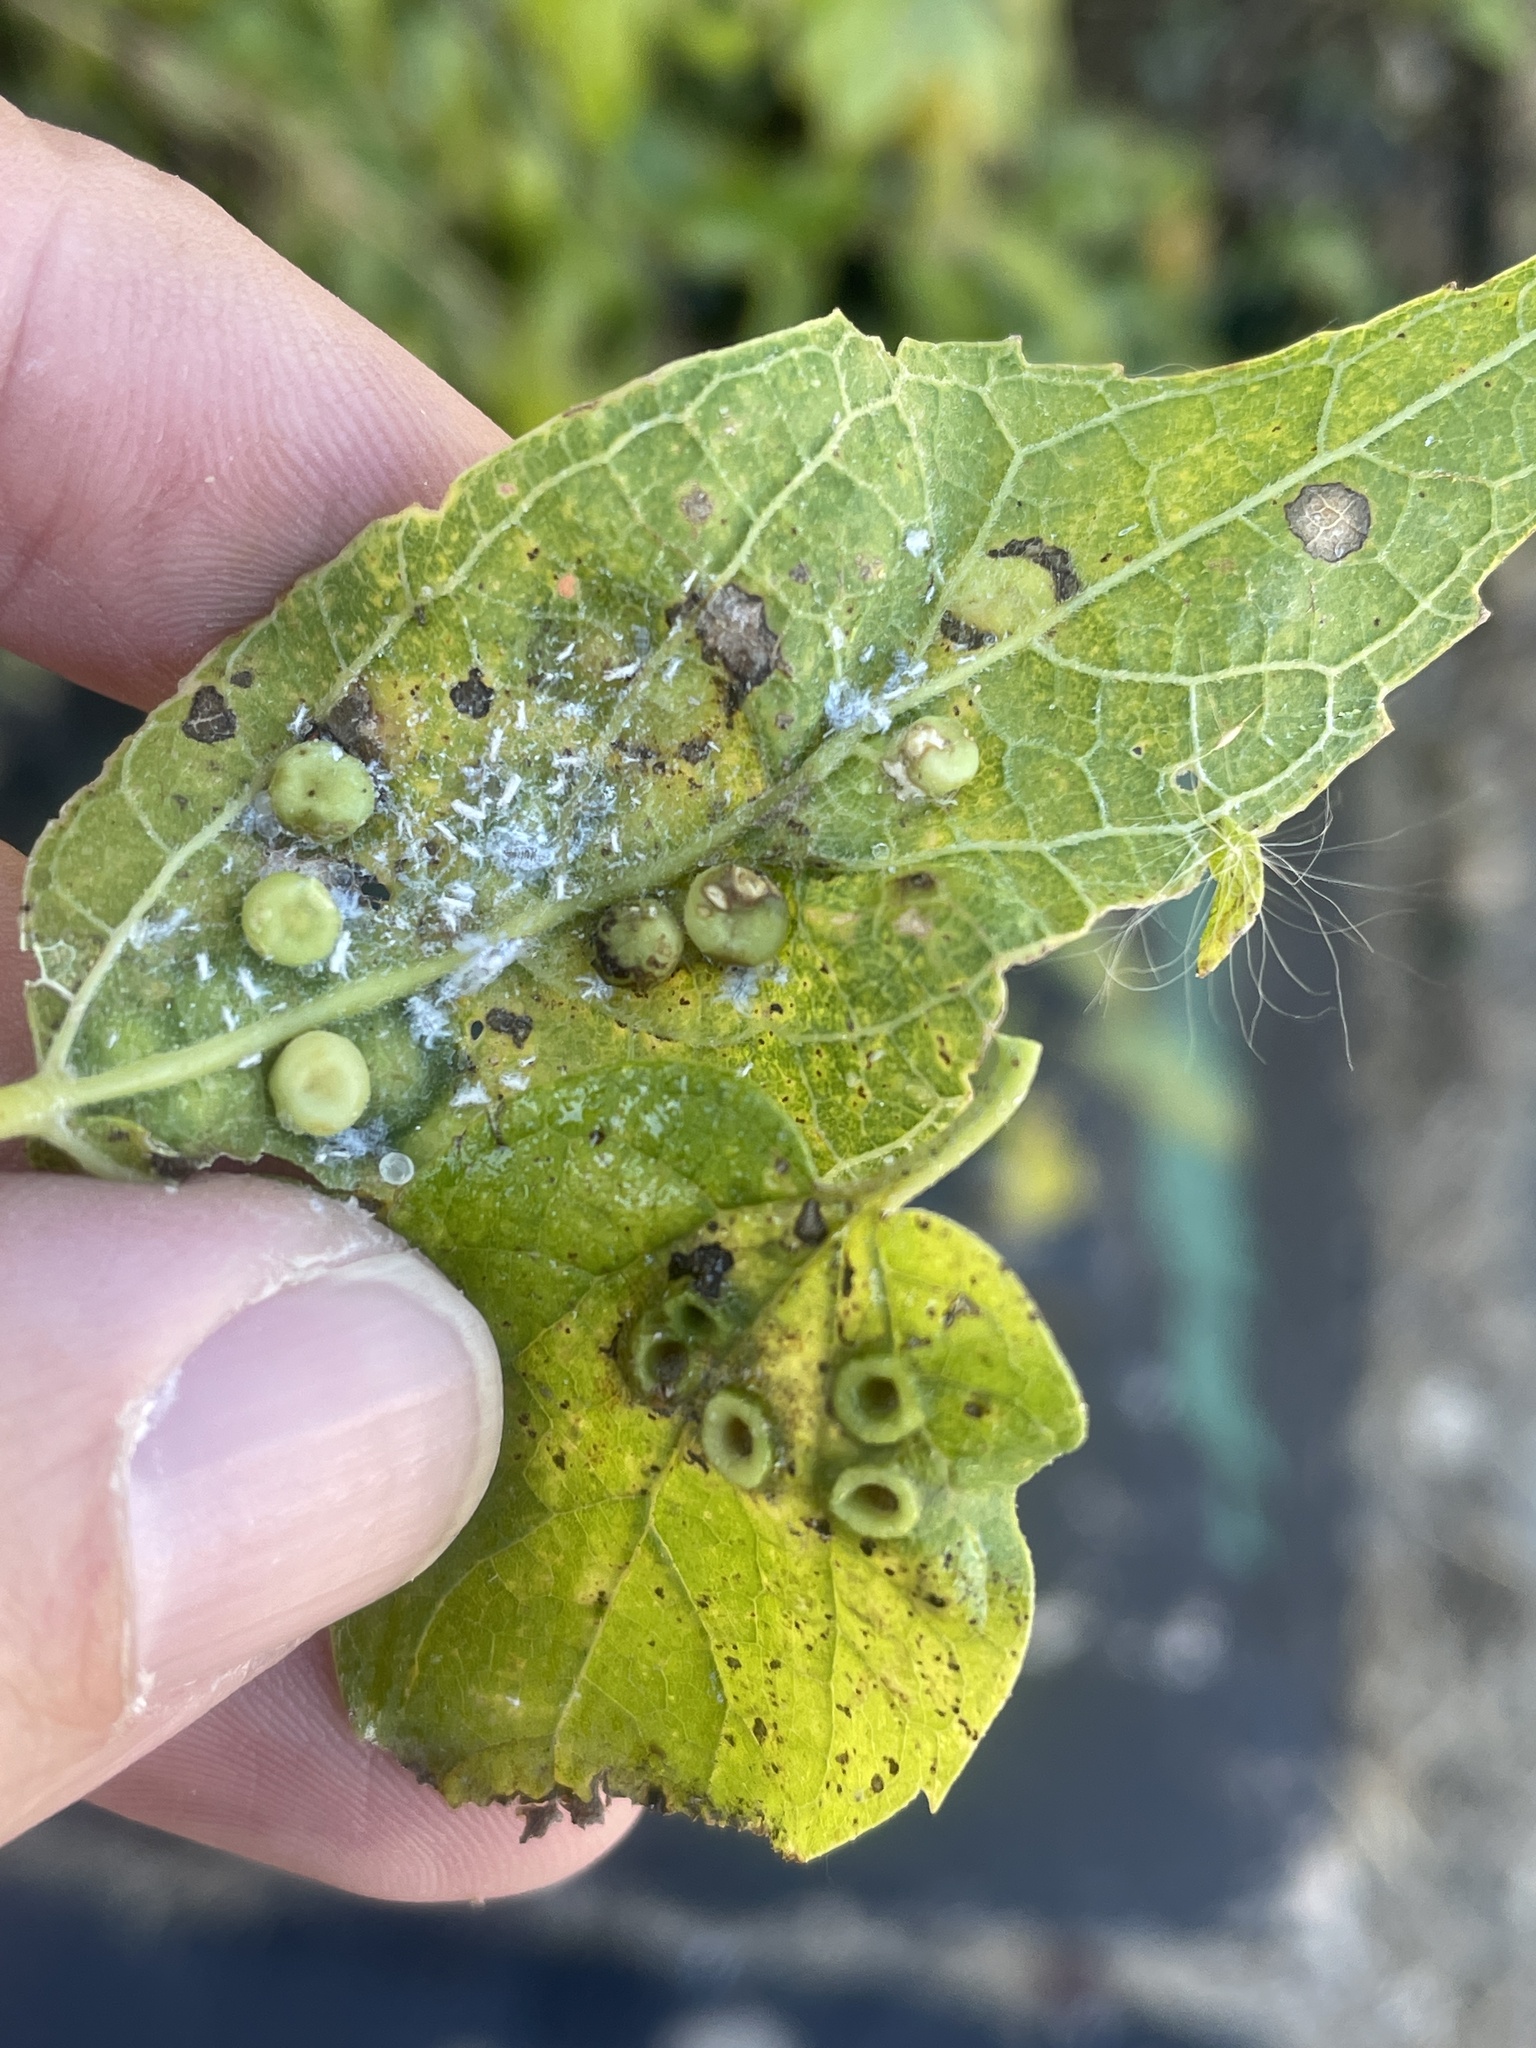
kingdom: Animalia
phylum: Arthropoda
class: Insecta
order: Hemiptera
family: Aphalaridae
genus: Pachypsylla
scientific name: Pachypsylla celtidismamma
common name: Hackberry nipplegall psyllid
